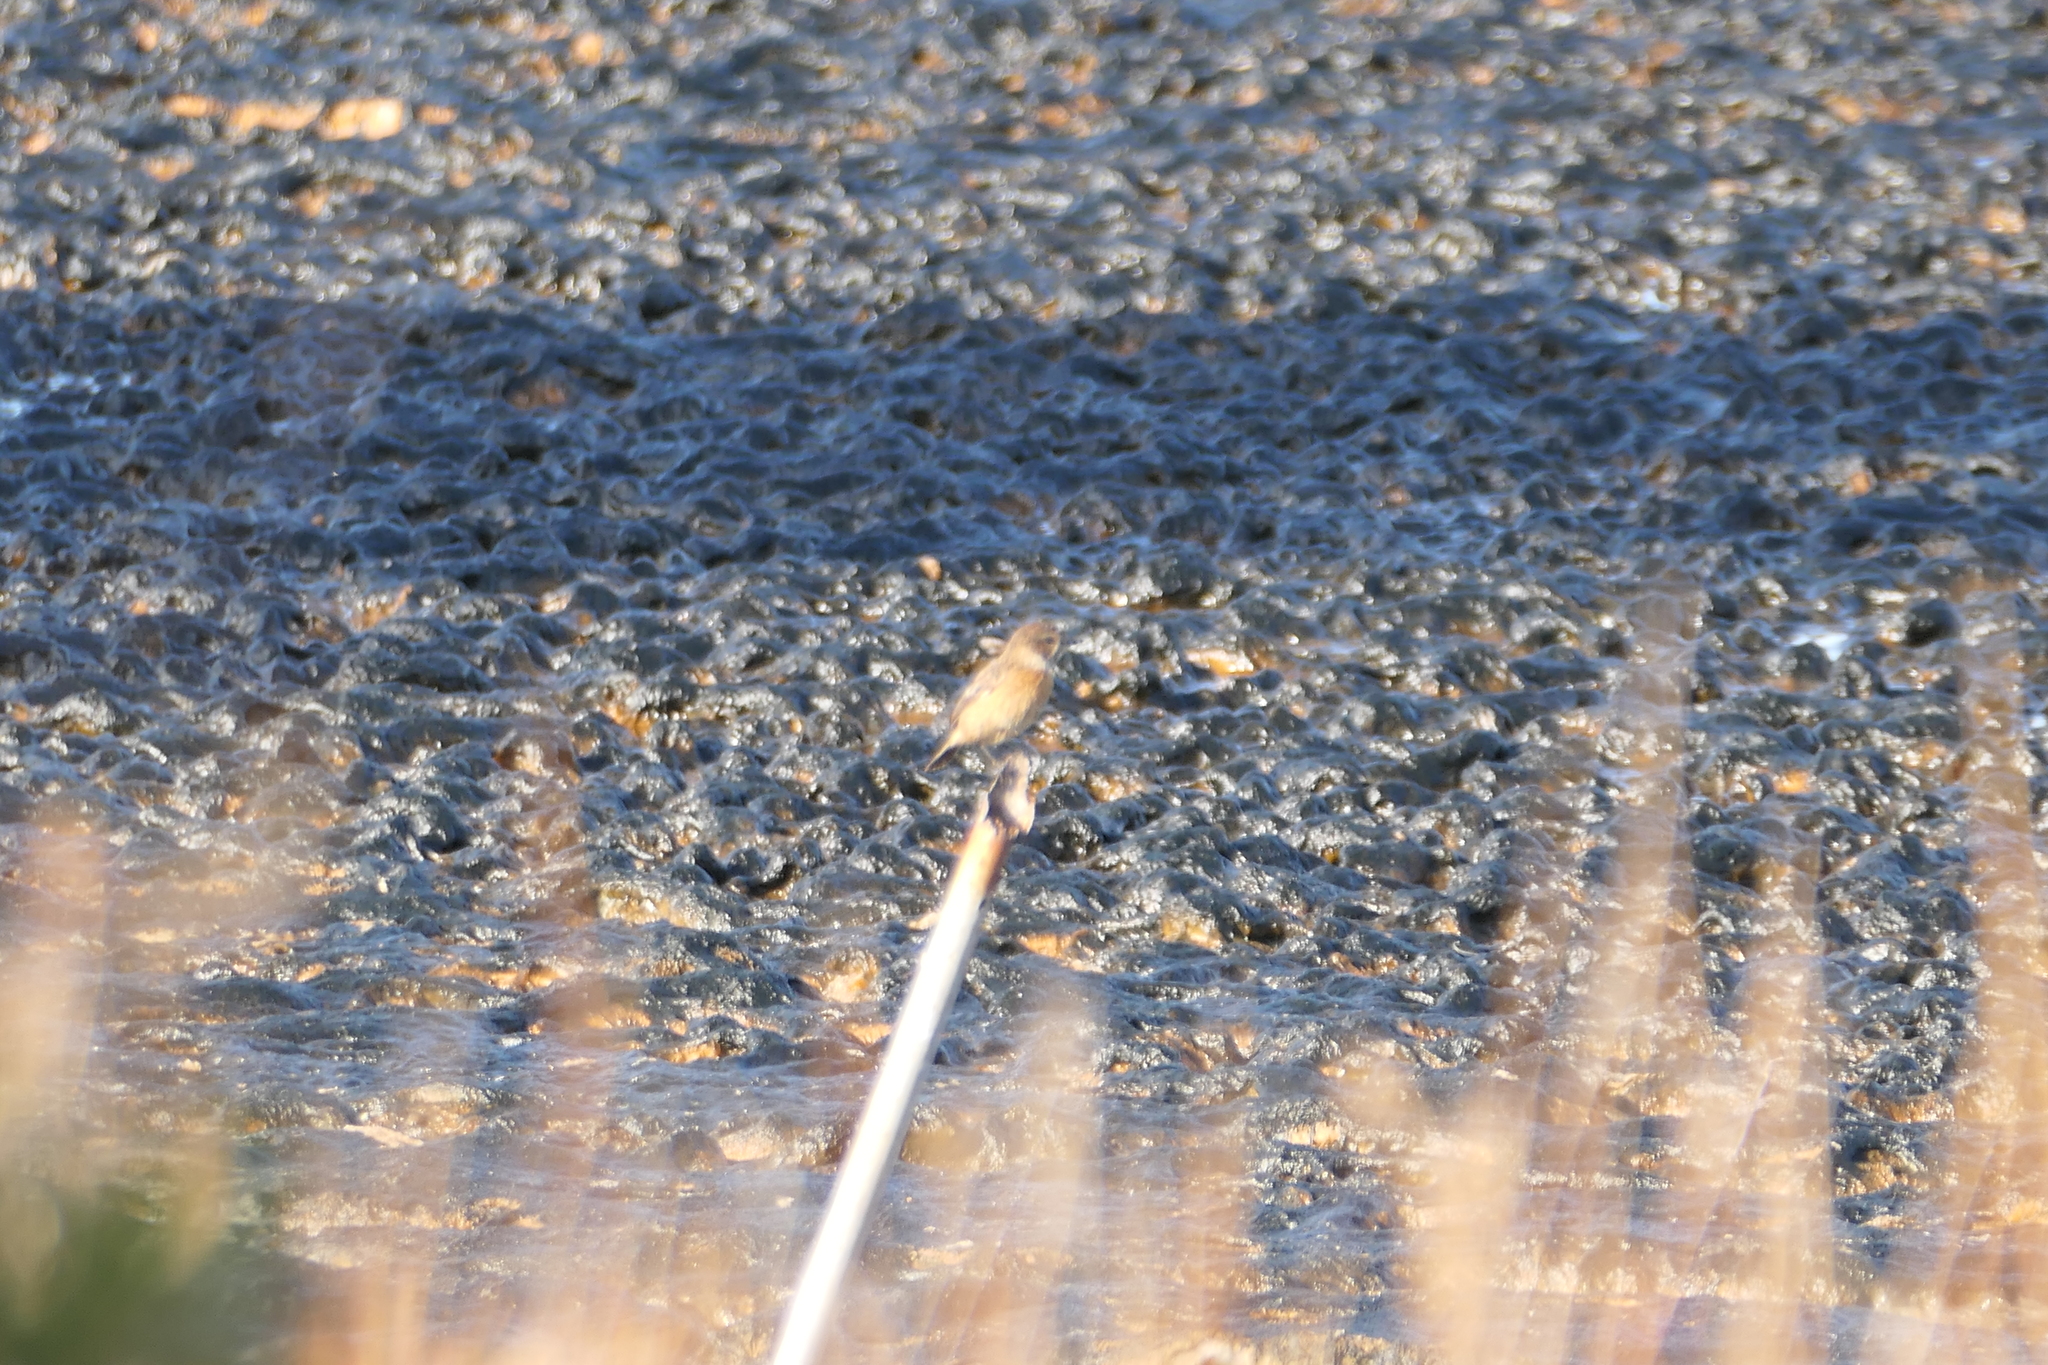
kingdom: Animalia
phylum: Chordata
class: Aves
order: Passeriformes
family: Muscicapidae
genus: Saxicola
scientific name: Saxicola rubicola
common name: European stonechat
